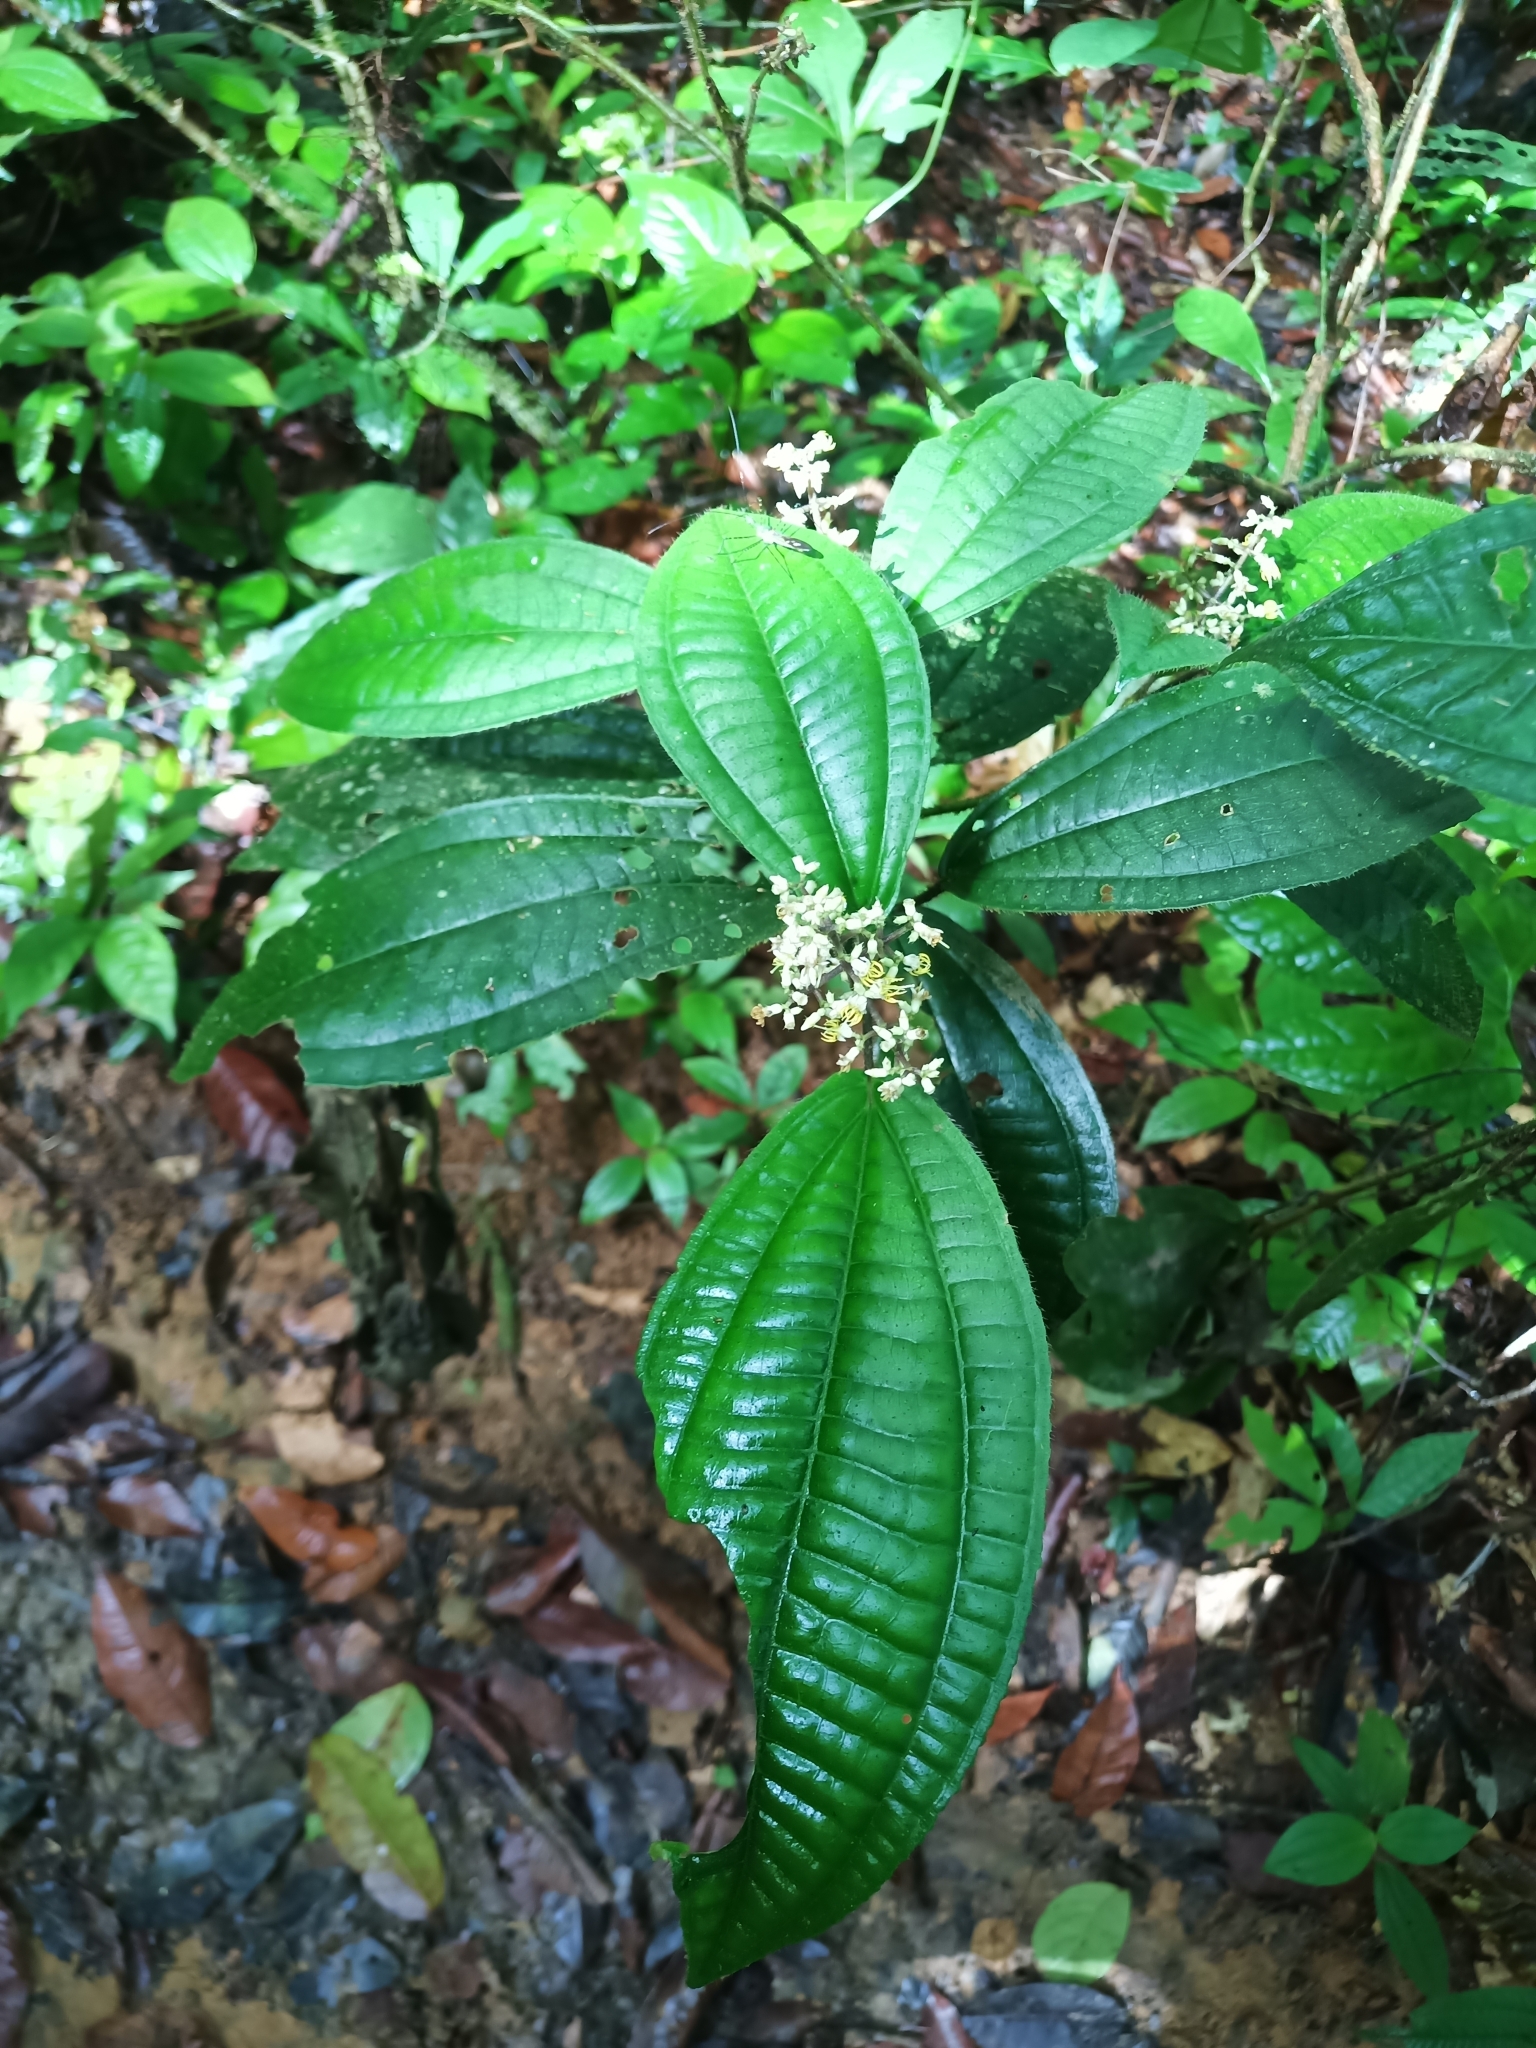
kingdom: Plantae
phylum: Tracheophyta
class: Magnoliopsida
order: Myrtales
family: Melastomataceae
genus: Miconia
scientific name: Miconia sastrei
